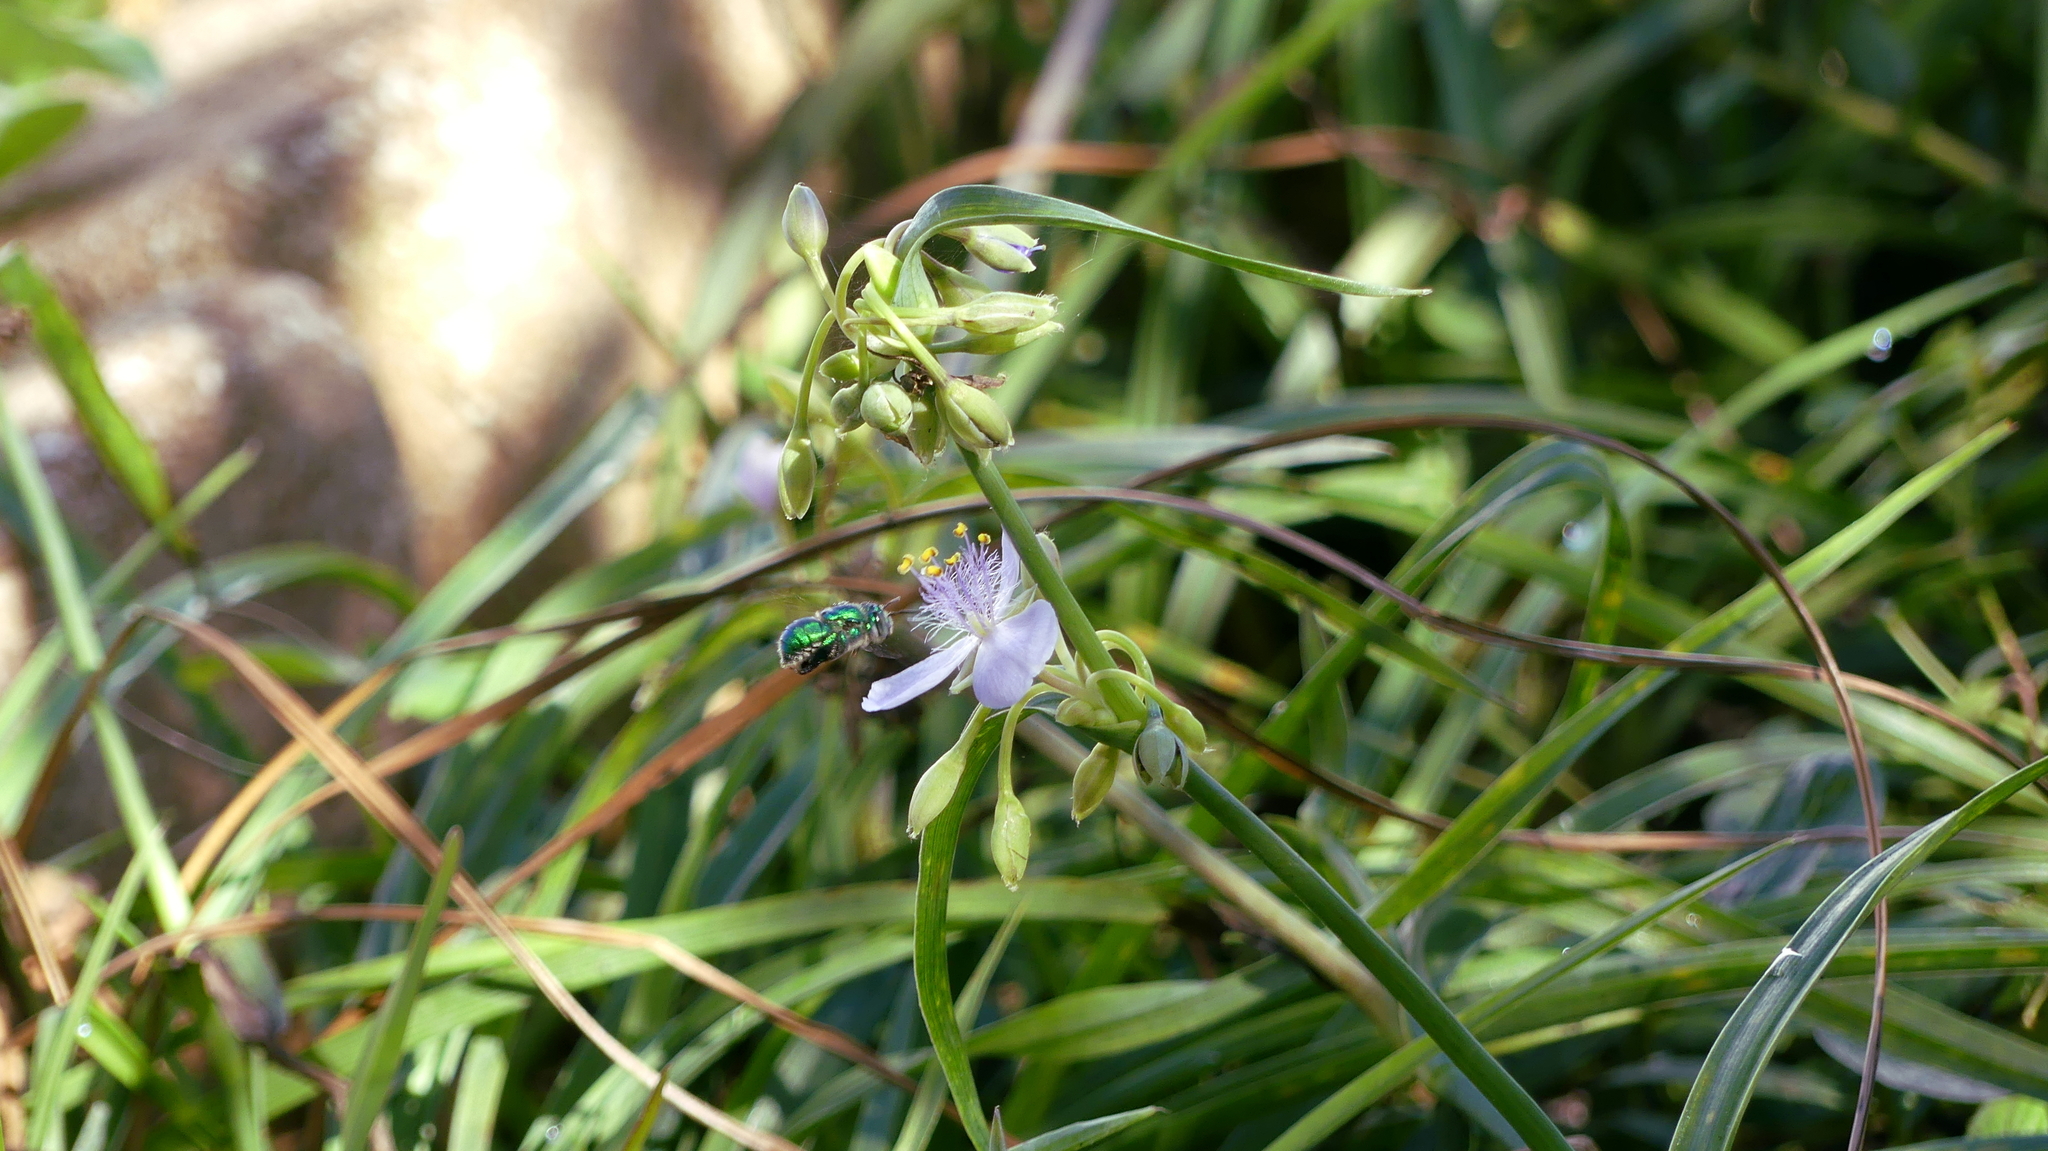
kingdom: Animalia
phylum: Arthropoda
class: Insecta
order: Hymenoptera
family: Apidae
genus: Euglossa
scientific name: Euglossa dilemma
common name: Green orchid bee
